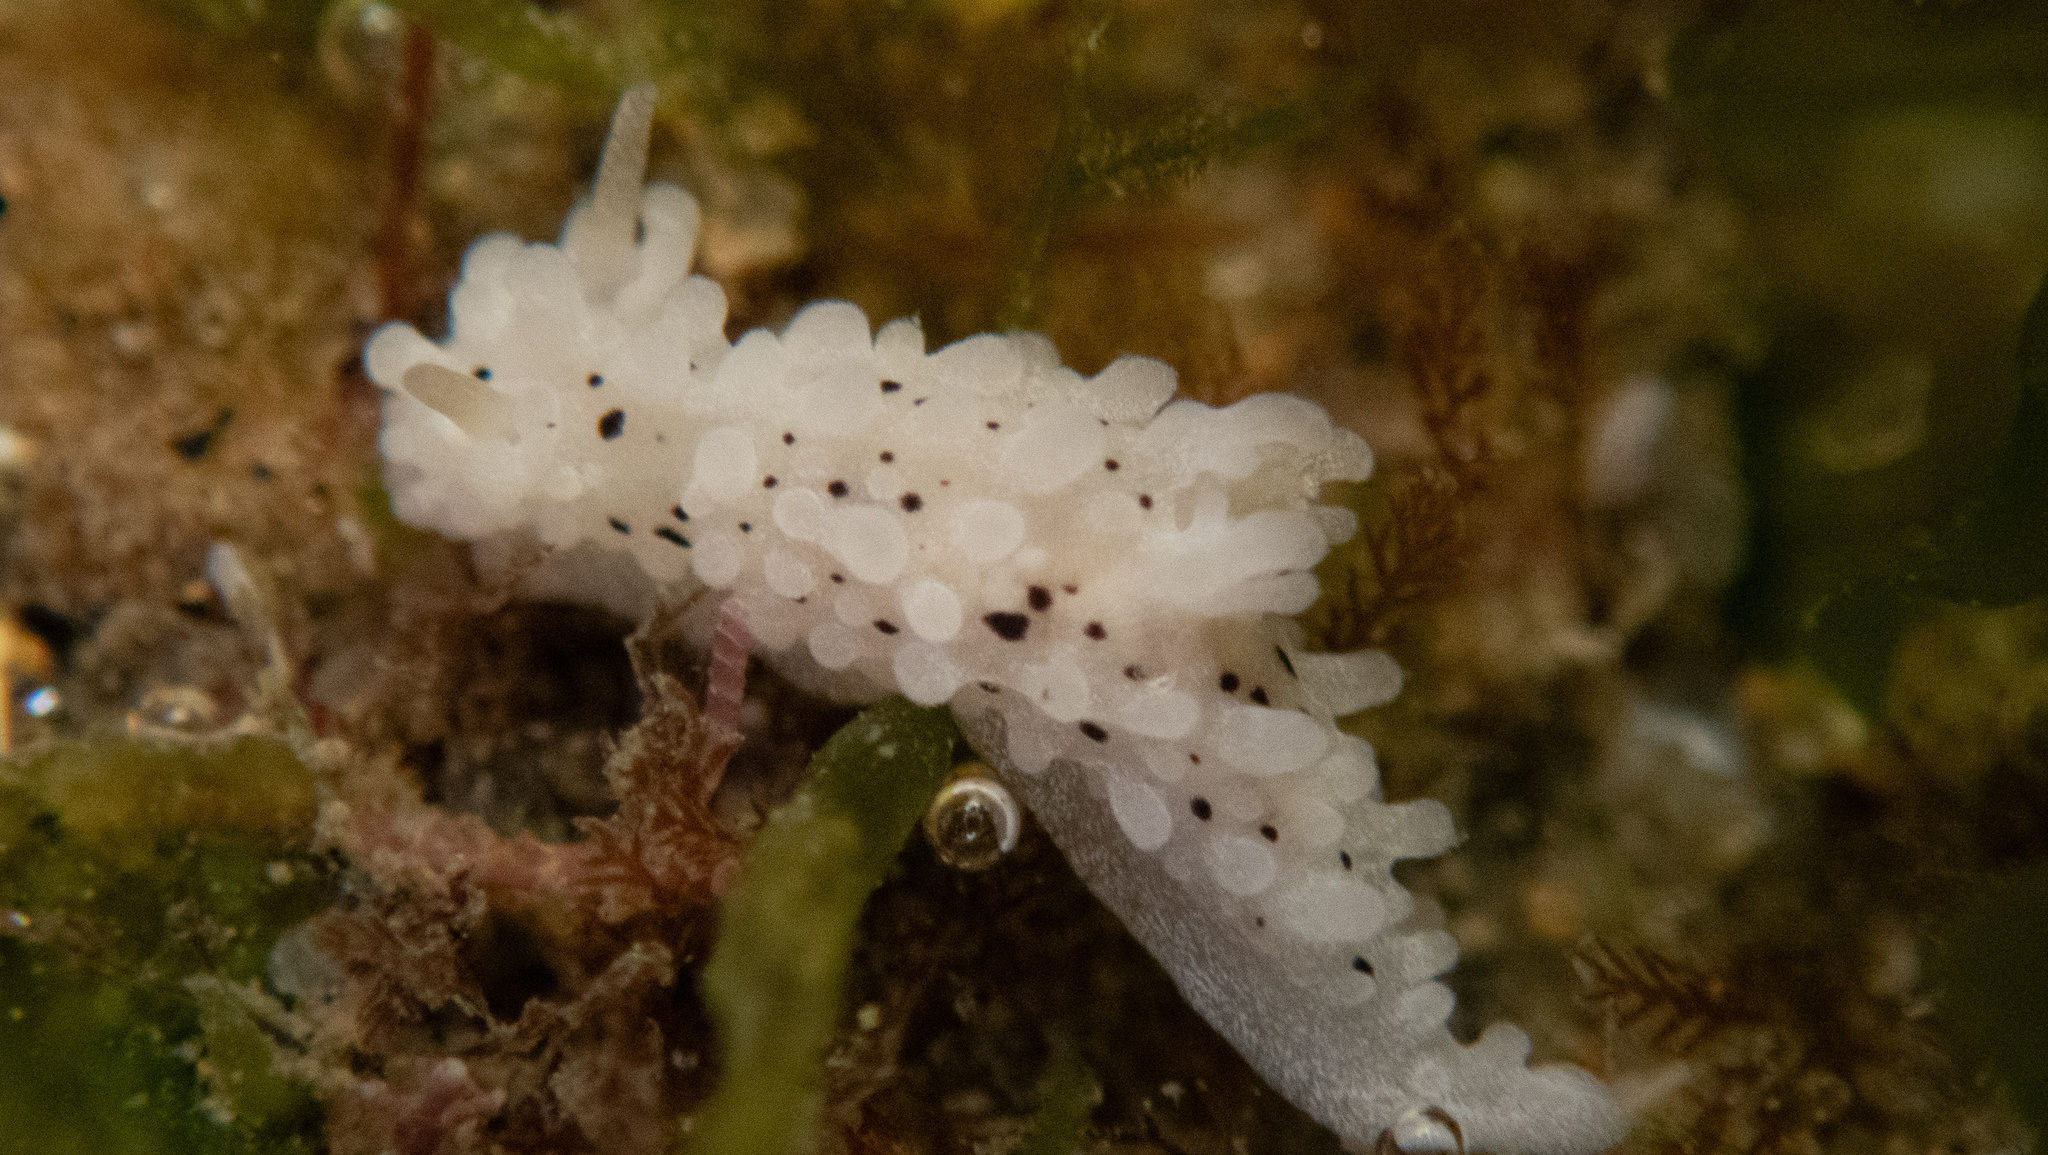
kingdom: Animalia
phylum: Mollusca
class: Gastropoda
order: Nudibranchia
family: Aegiridae
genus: Aegires
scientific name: Aegires albopunctatus
